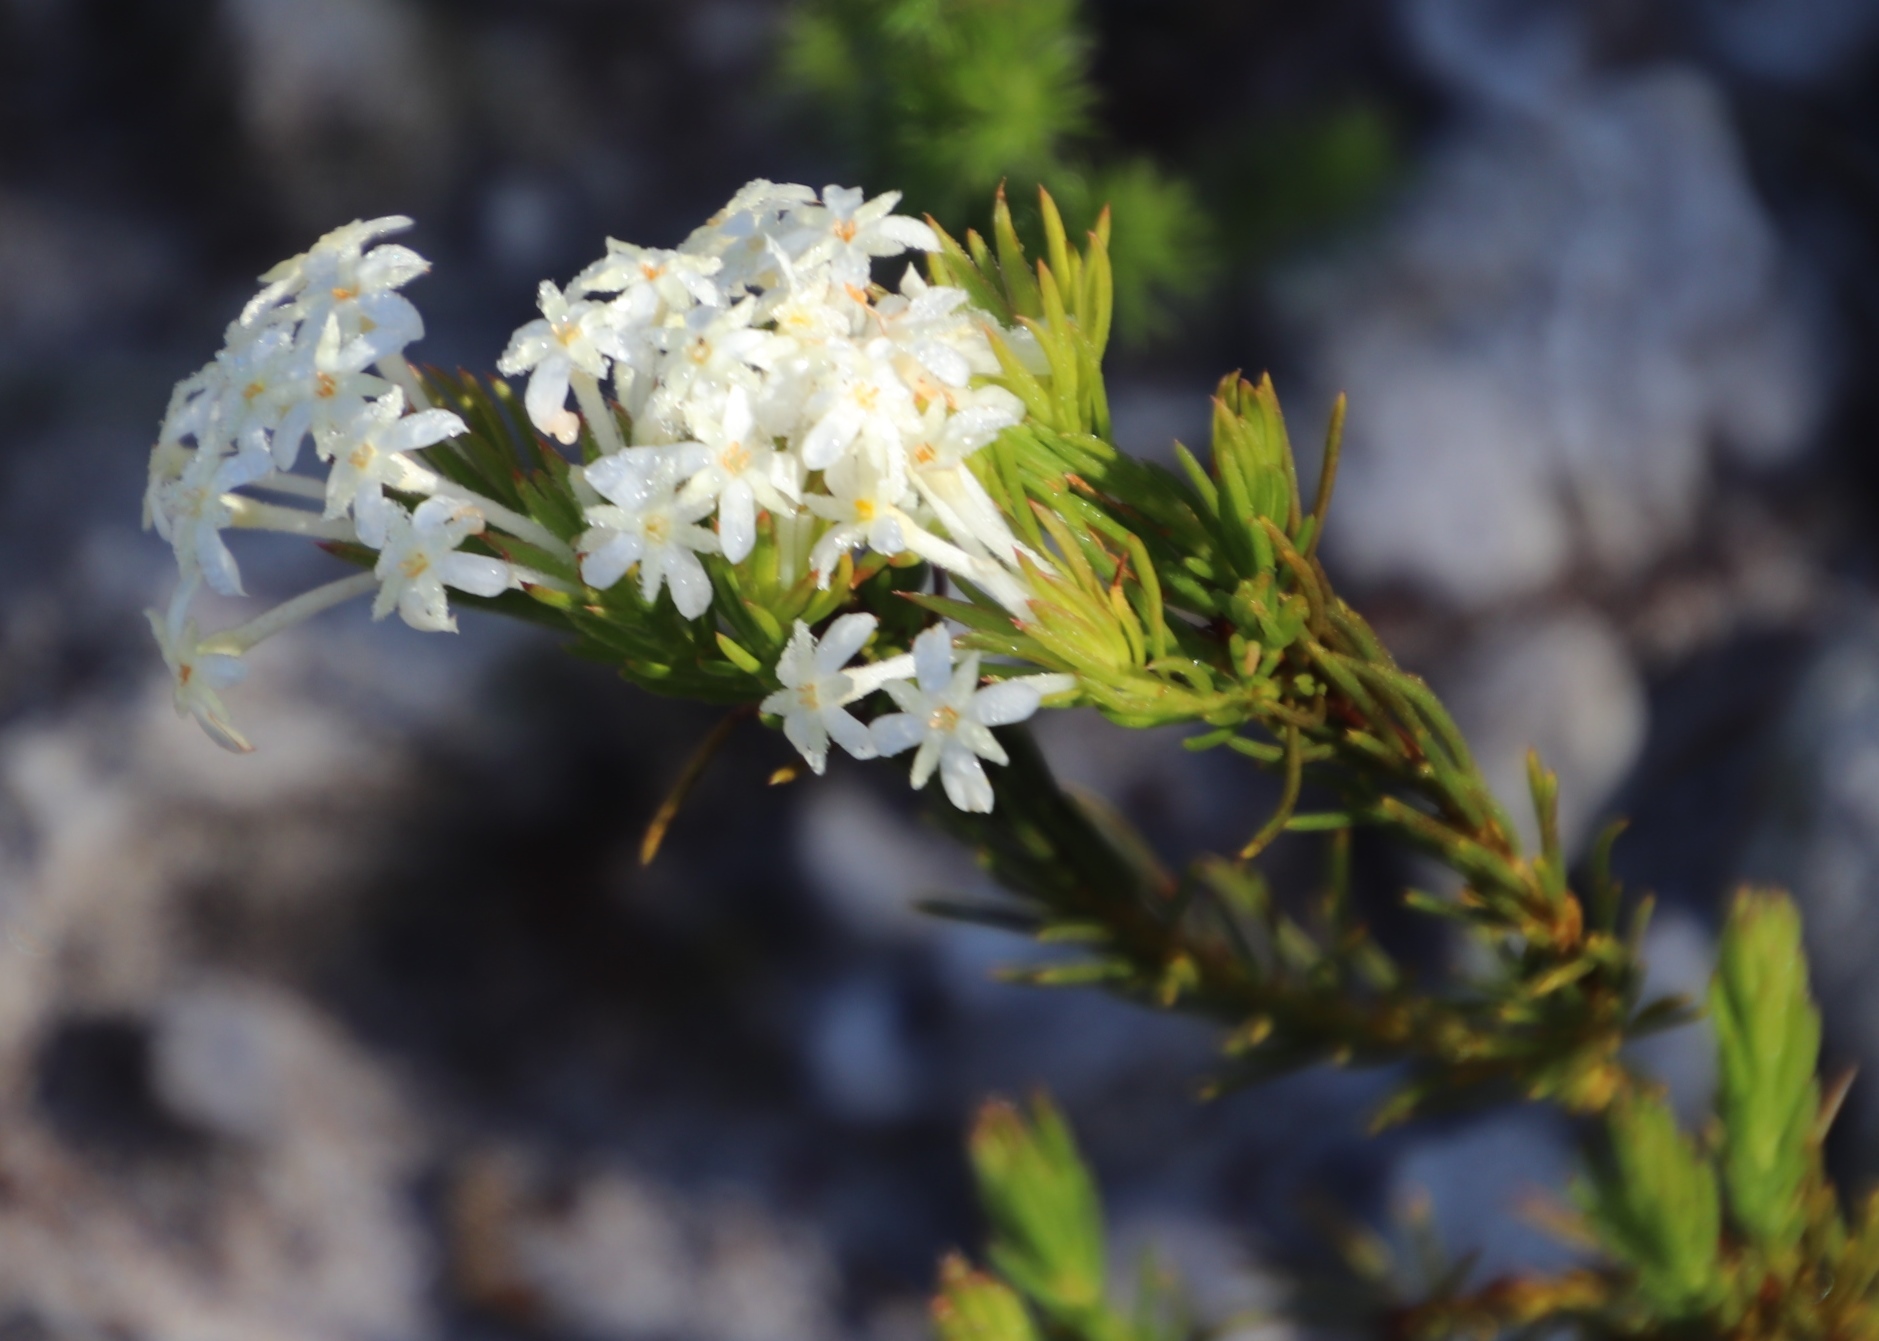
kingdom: Plantae
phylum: Tracheophyta
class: Magnoliopsida
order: Malvales
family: Thymelaeaceae
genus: Gnidia
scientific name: Gnidia pinifolia
